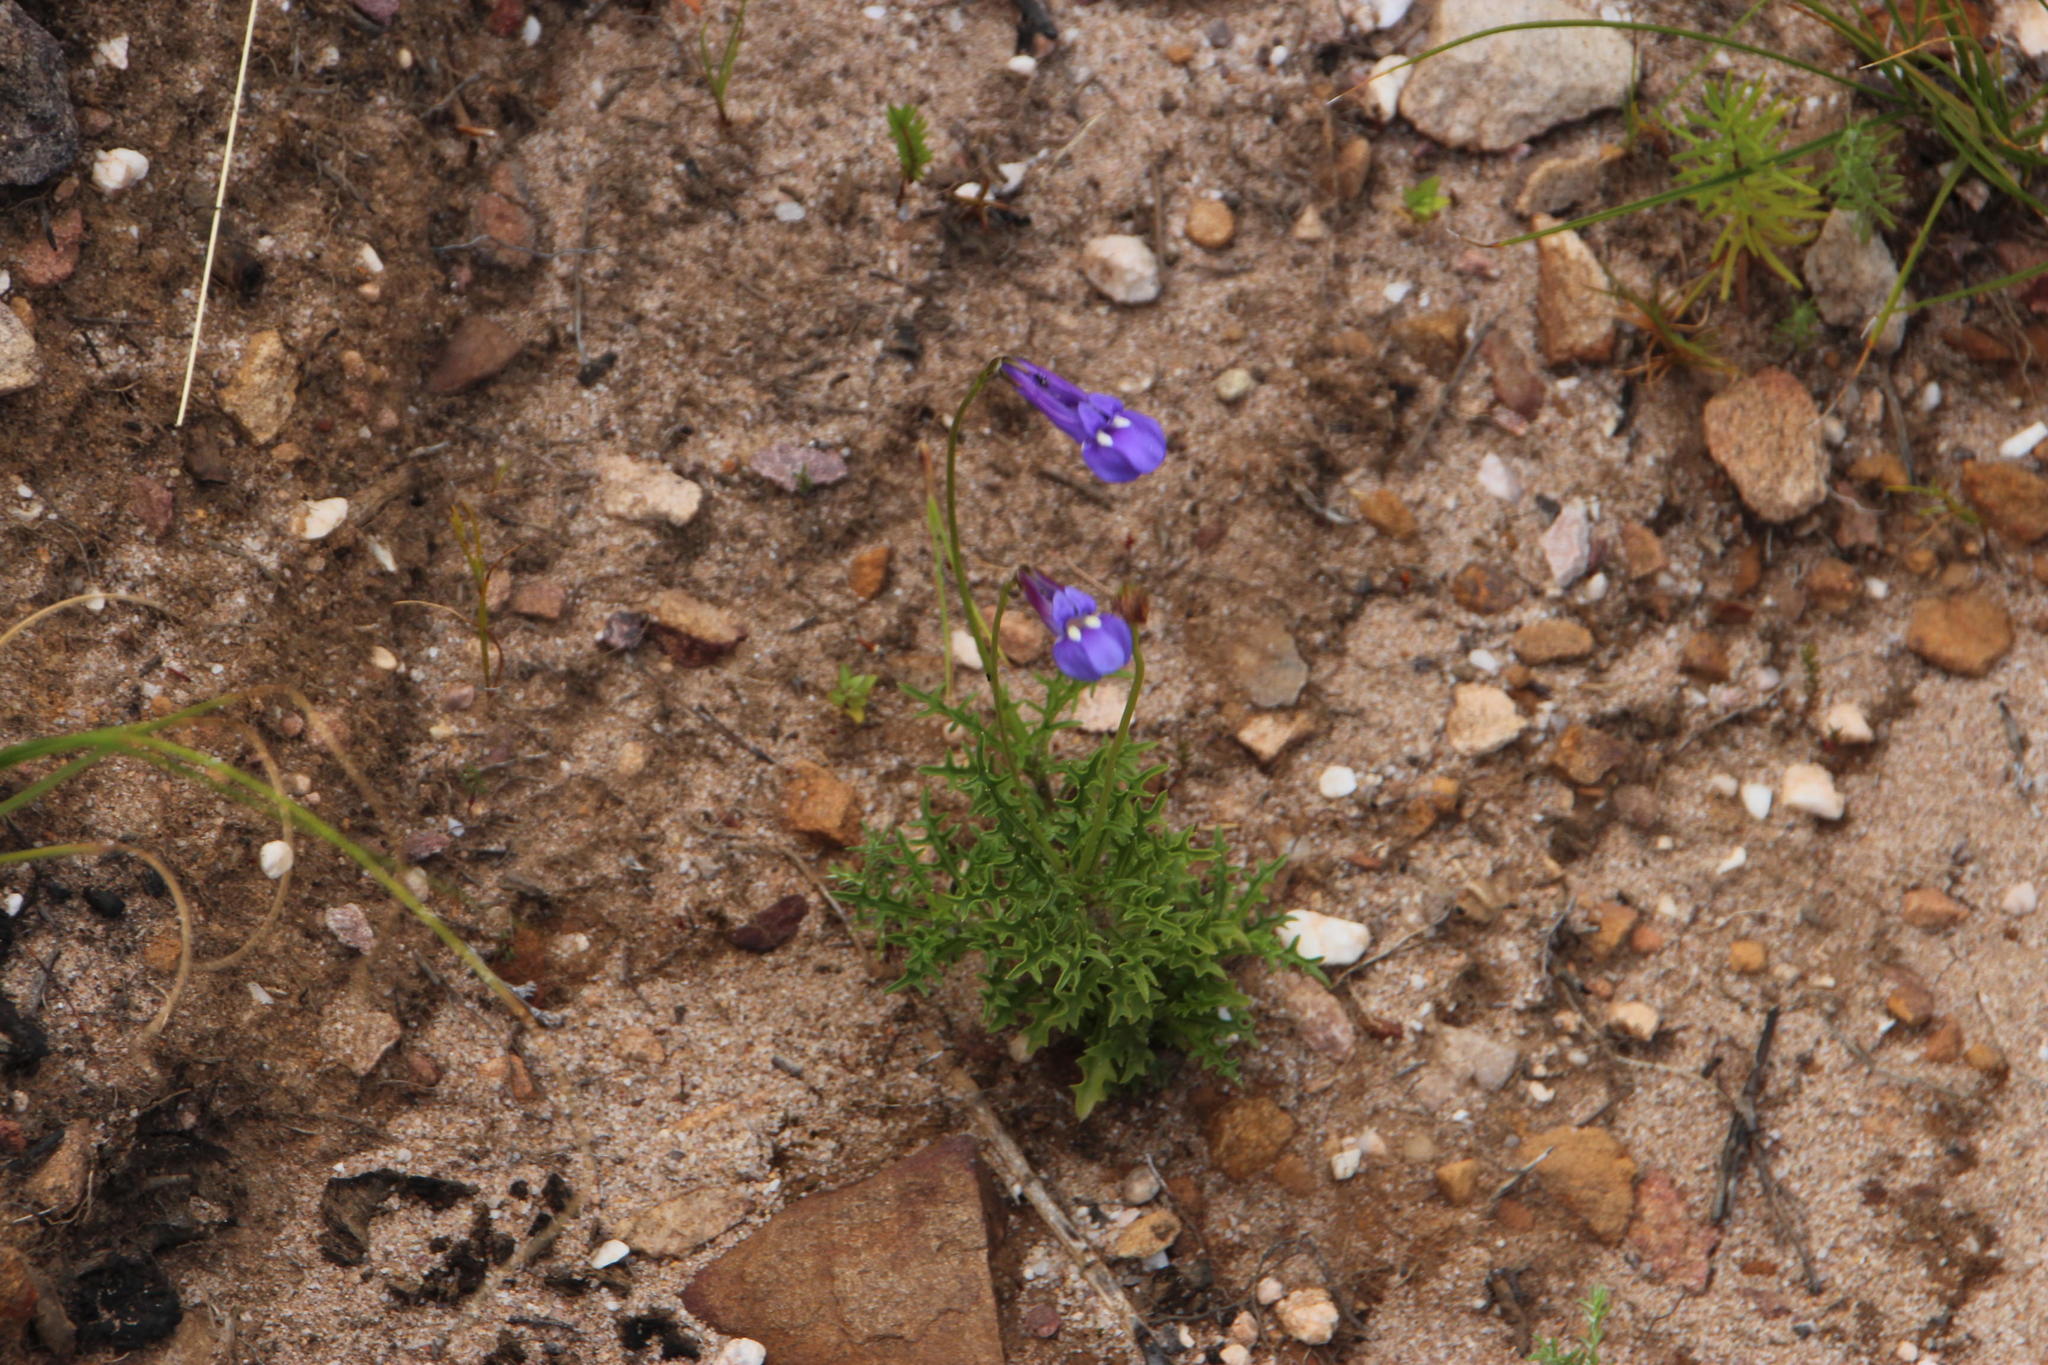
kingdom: Plantae
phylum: Tracheophyta
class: Magnoliopsida
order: Asterales
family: Campanulaceae
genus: Lobelia
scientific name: Lobelia coronopifolia
